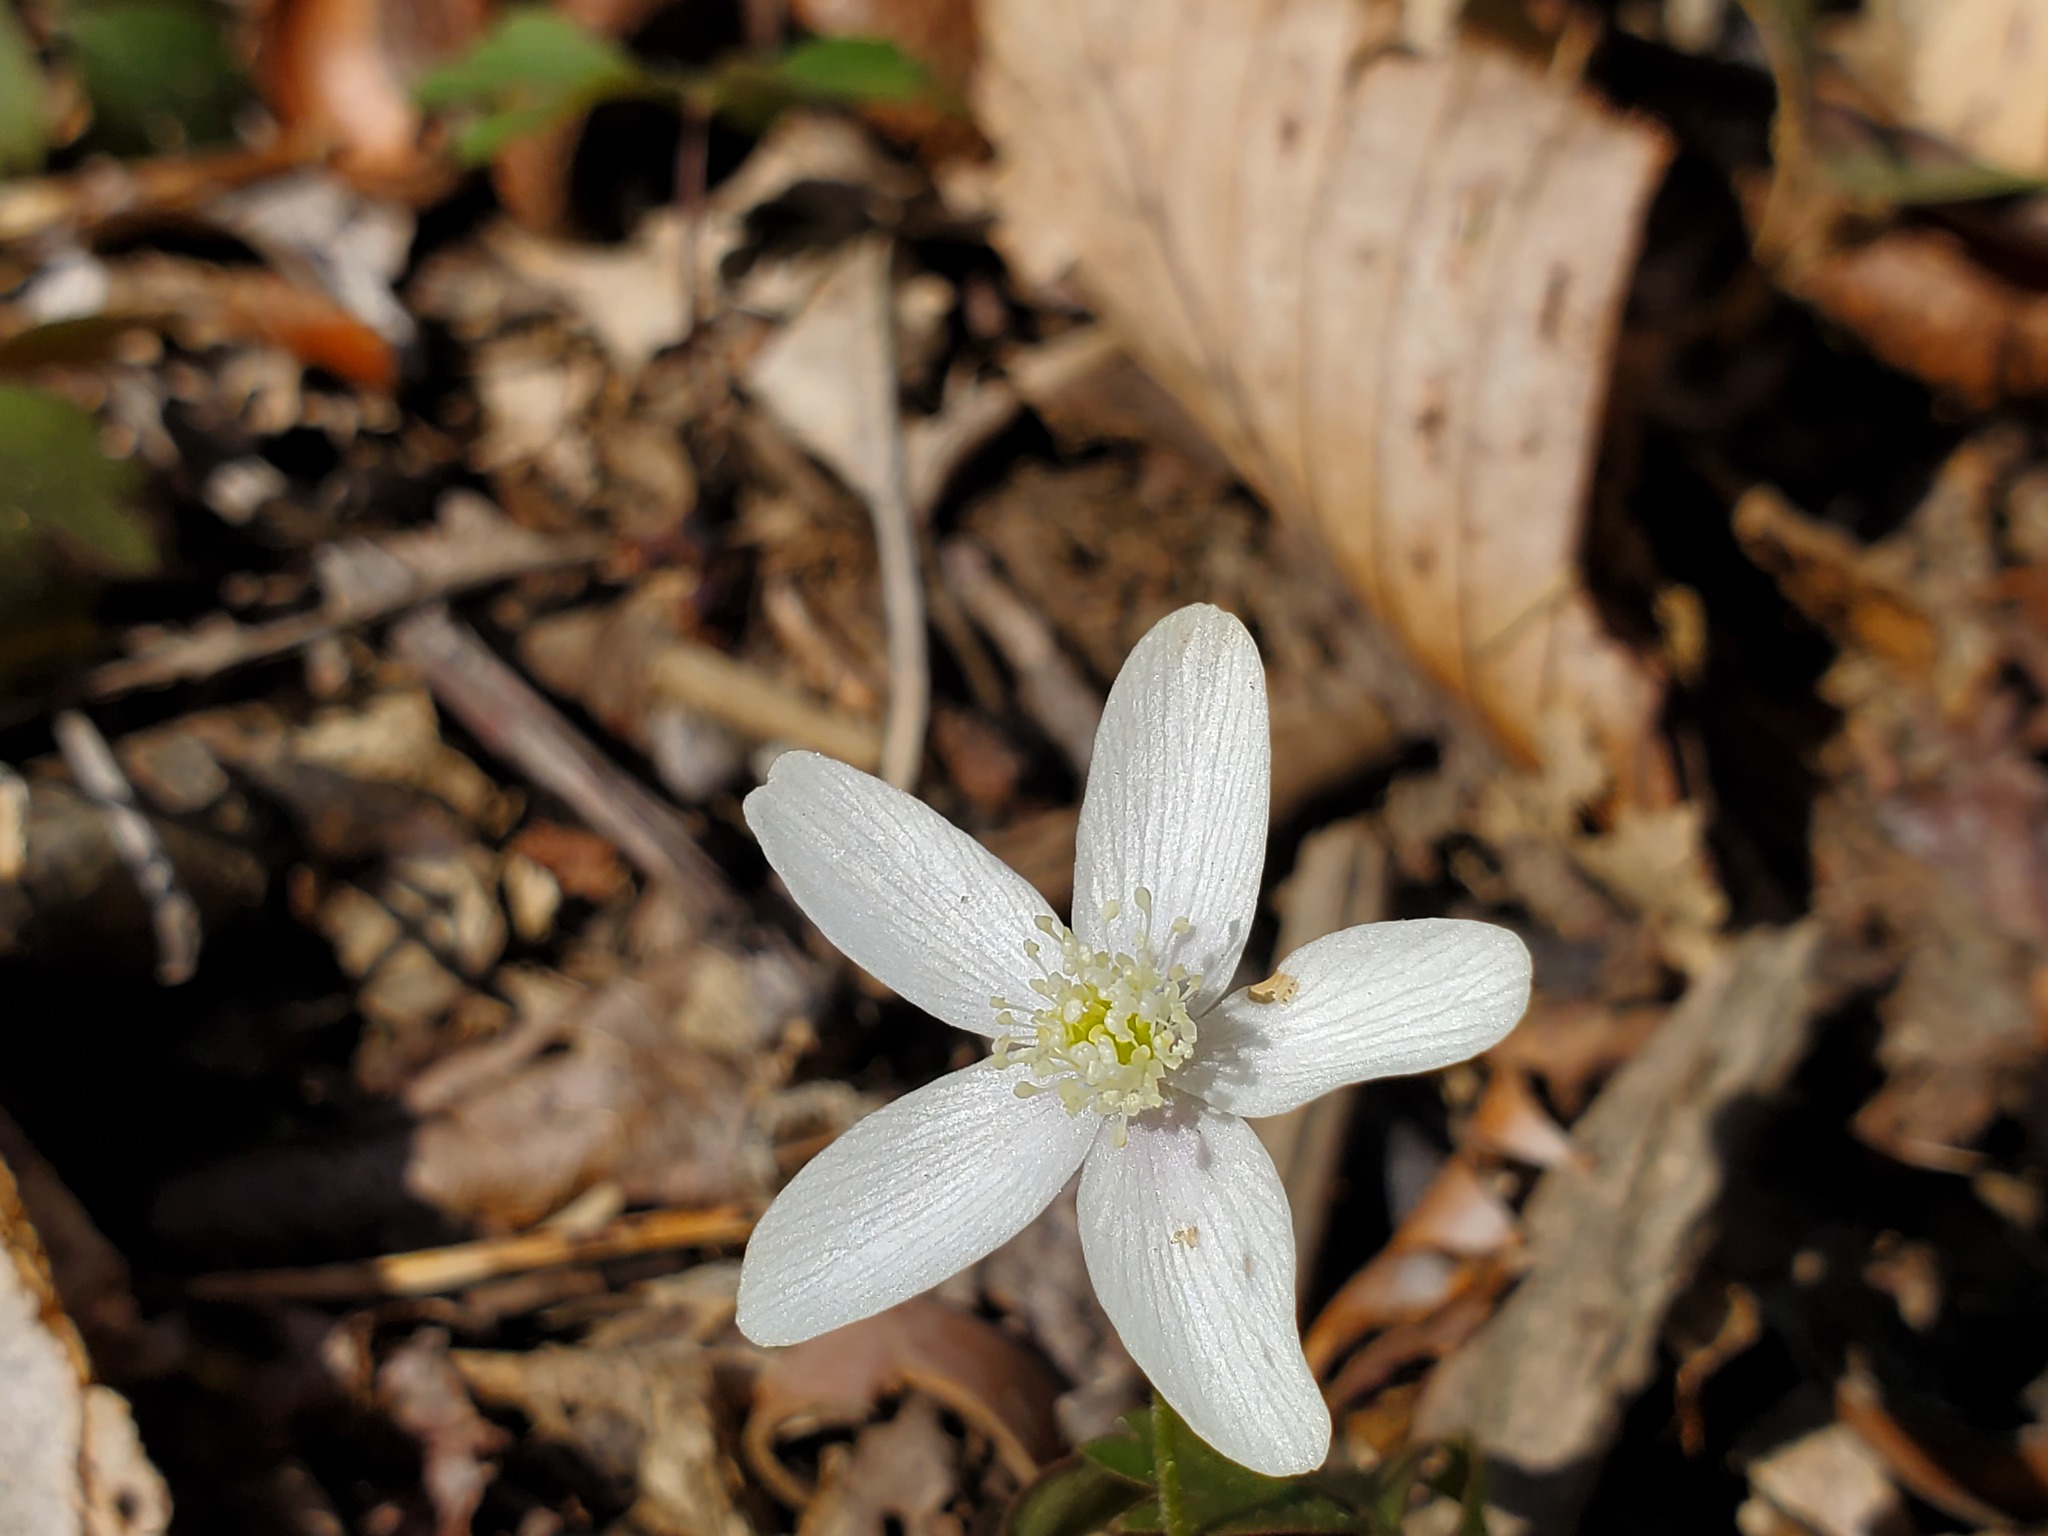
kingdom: Plantae
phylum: Tracheophyta
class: Magnoliopsida
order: Ranunculales
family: Ranunculaceae
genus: Anemone
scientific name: Anemone quinquefolia
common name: Wood anemone
